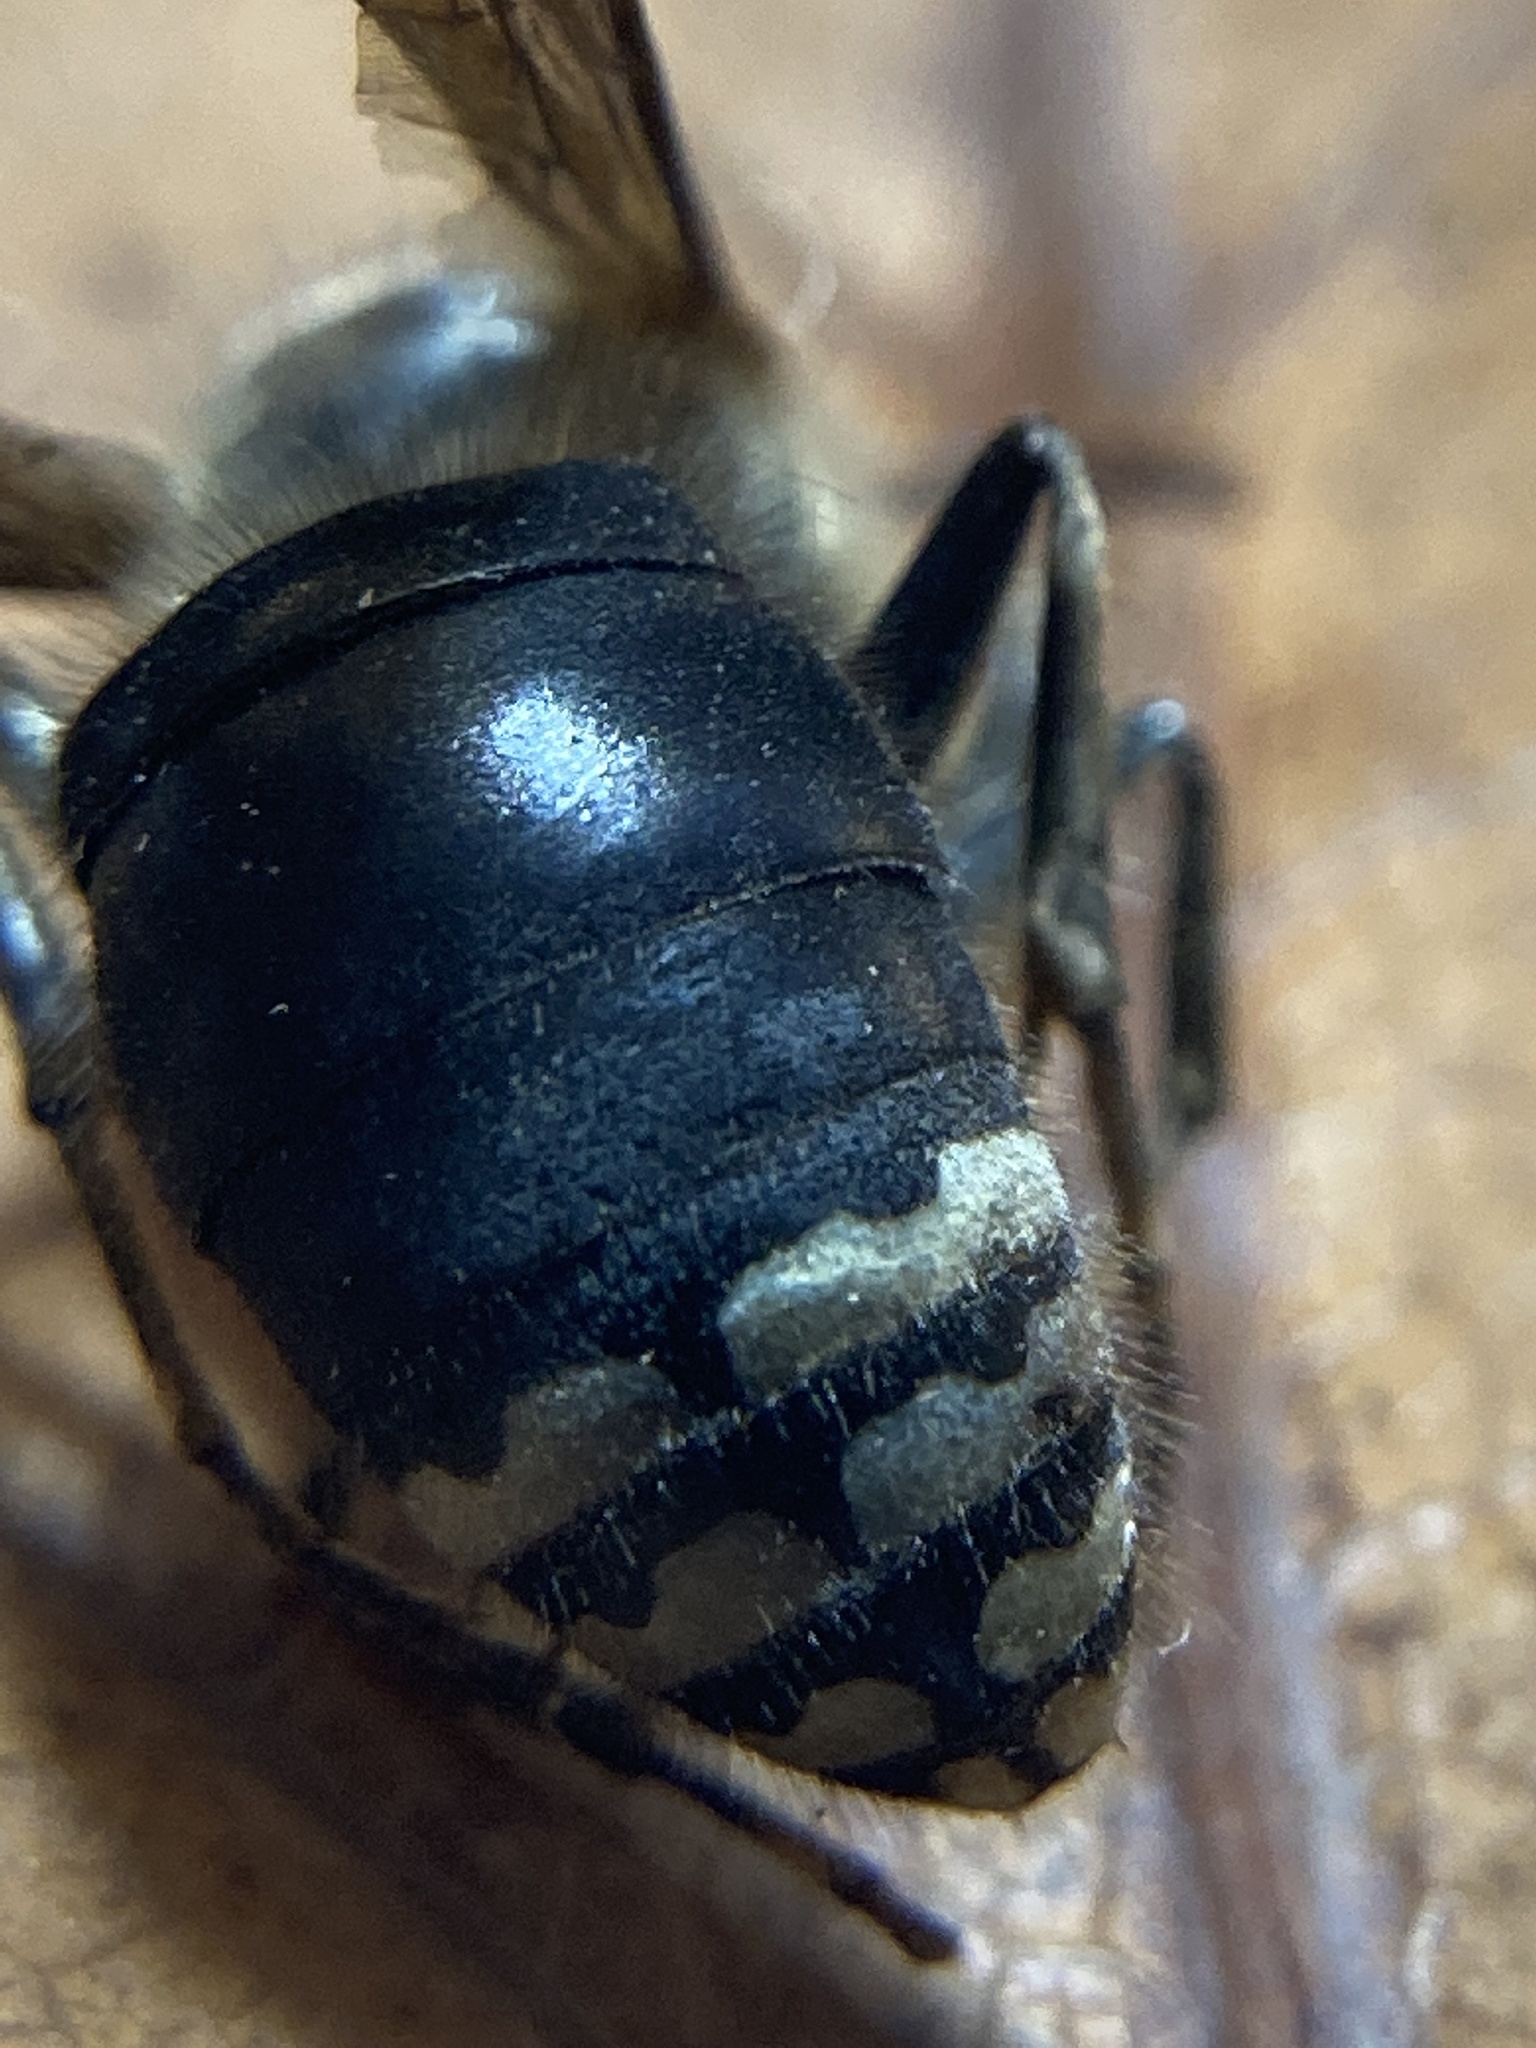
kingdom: Animalia
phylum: Arthropoda
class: Insecta
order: Hymenoptera
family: Vespidae
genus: Dolichovespula
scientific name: Dolichovespula maculata
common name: Bald-faced hornet
